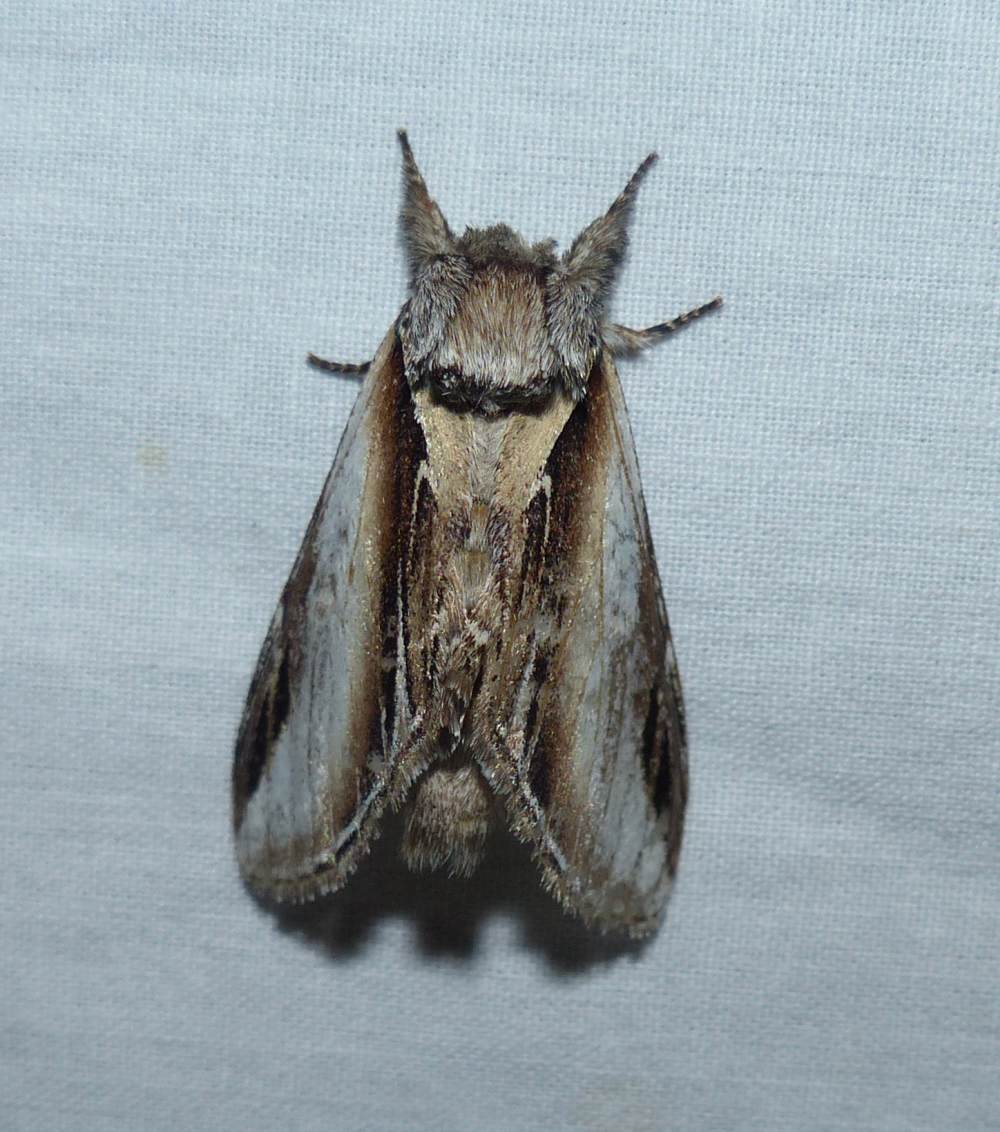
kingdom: Animalia
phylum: Arthropoda
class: Insecta
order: Lepidoptera
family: Notodontidae
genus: Pheosia
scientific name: Pheosia rimosa
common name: Black-rimmed prominent
